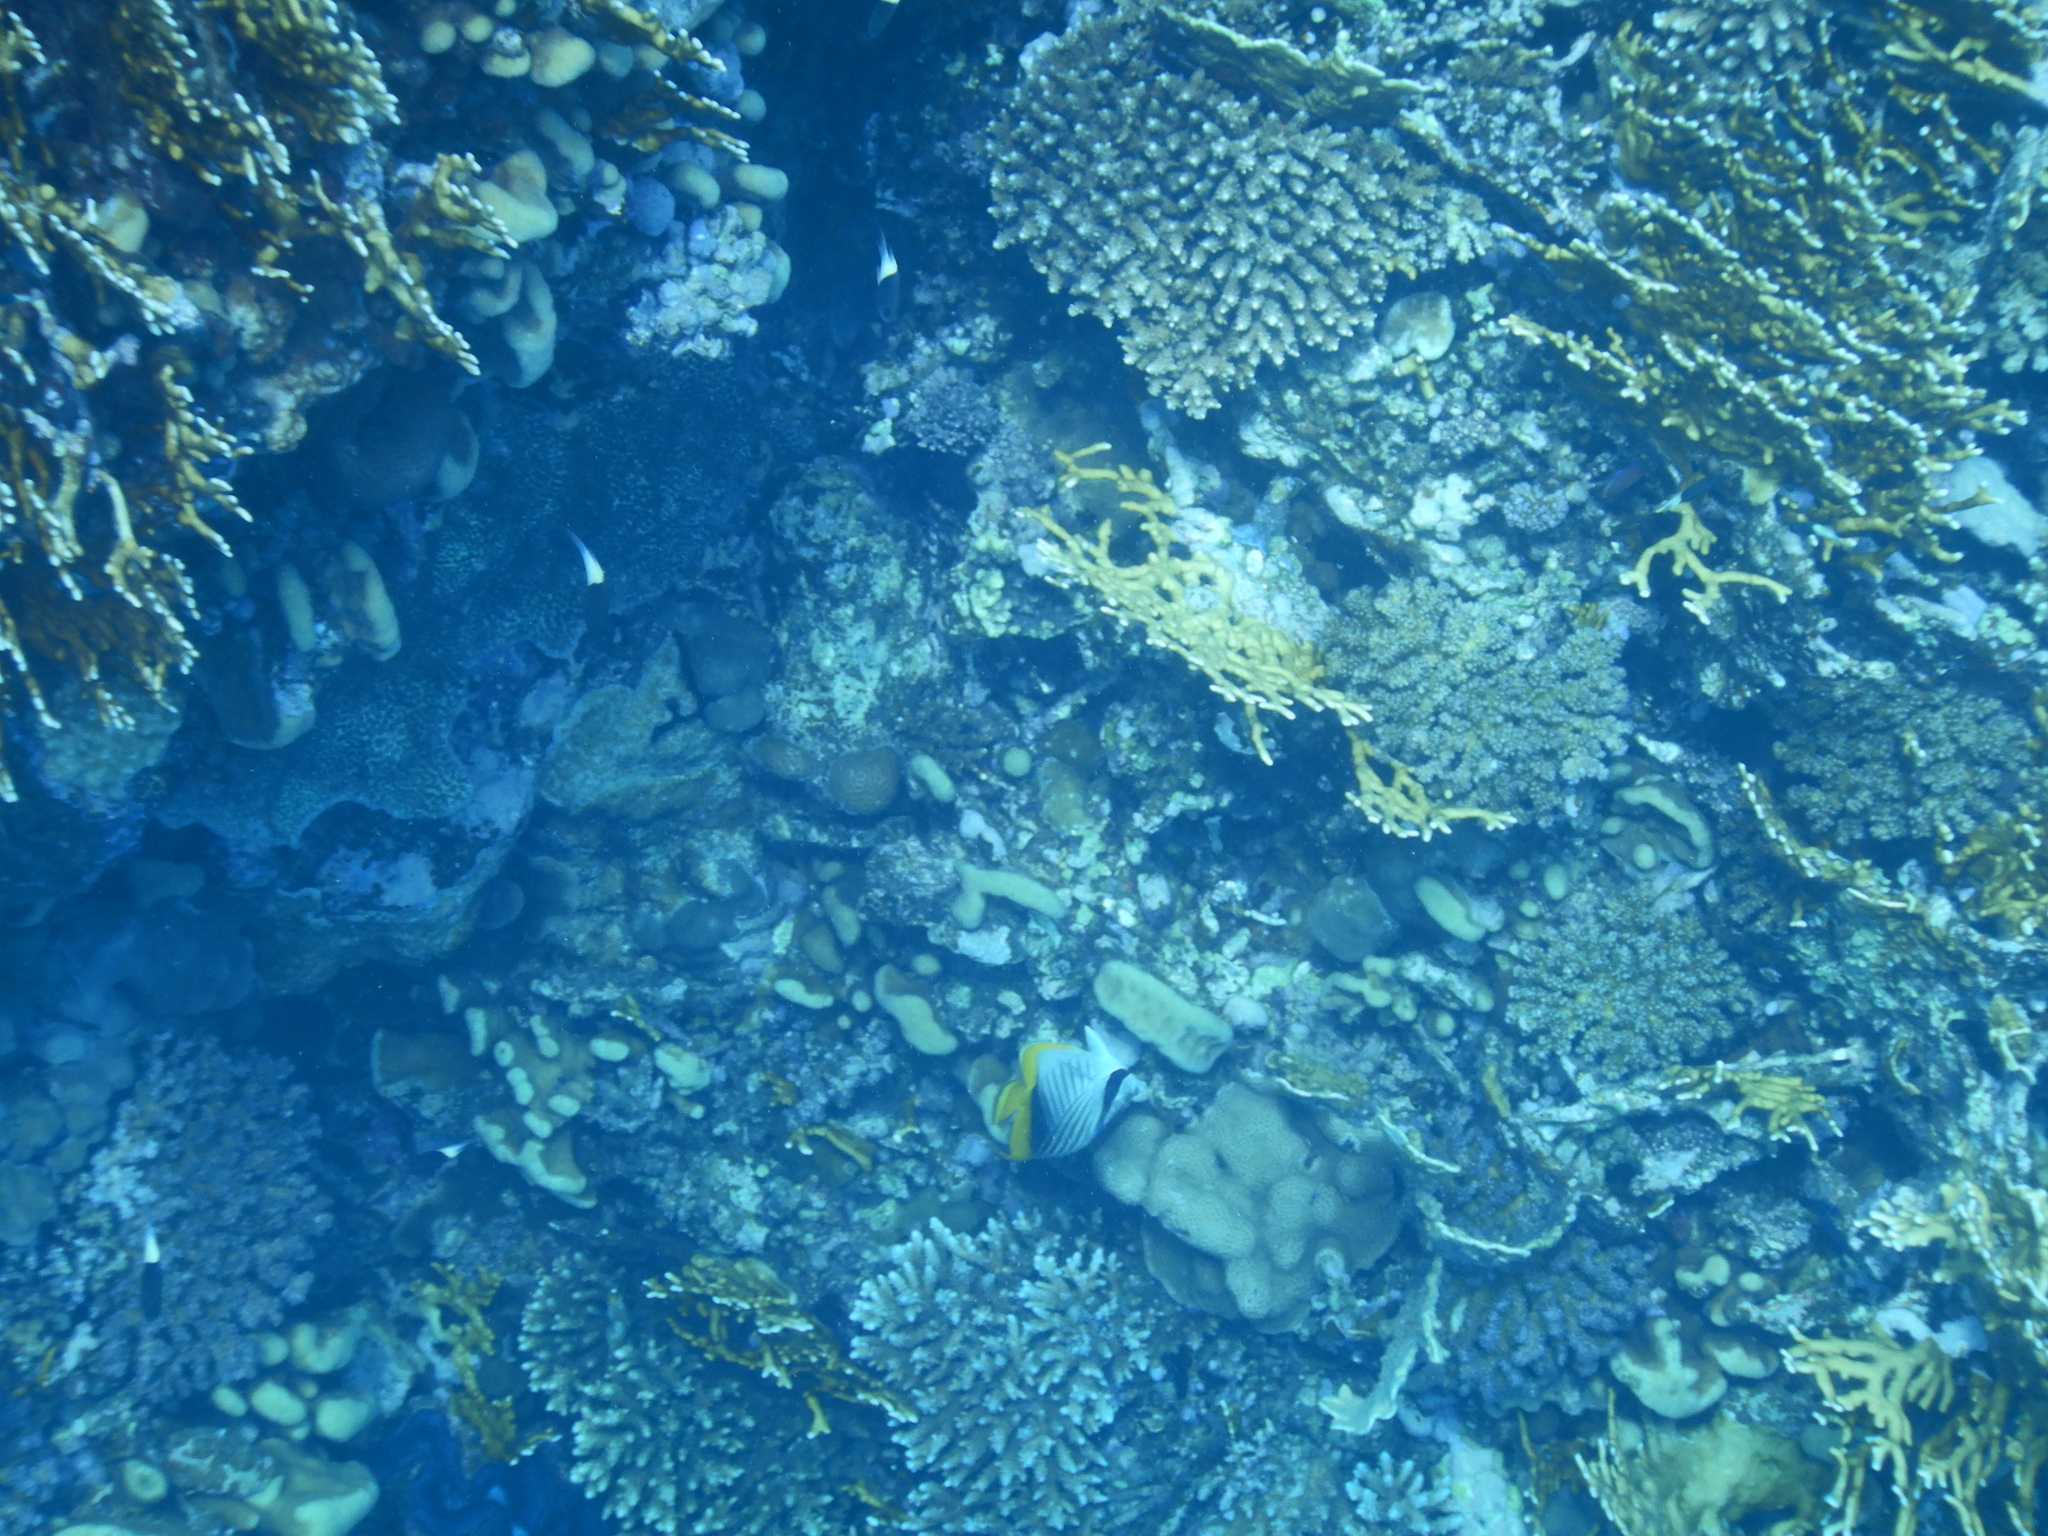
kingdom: Animalia
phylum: Chordata
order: Perciformes
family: Chaetodontidae
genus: Chaetodon
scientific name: Chaetodon auriga
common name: Threadfin butterflyfish
